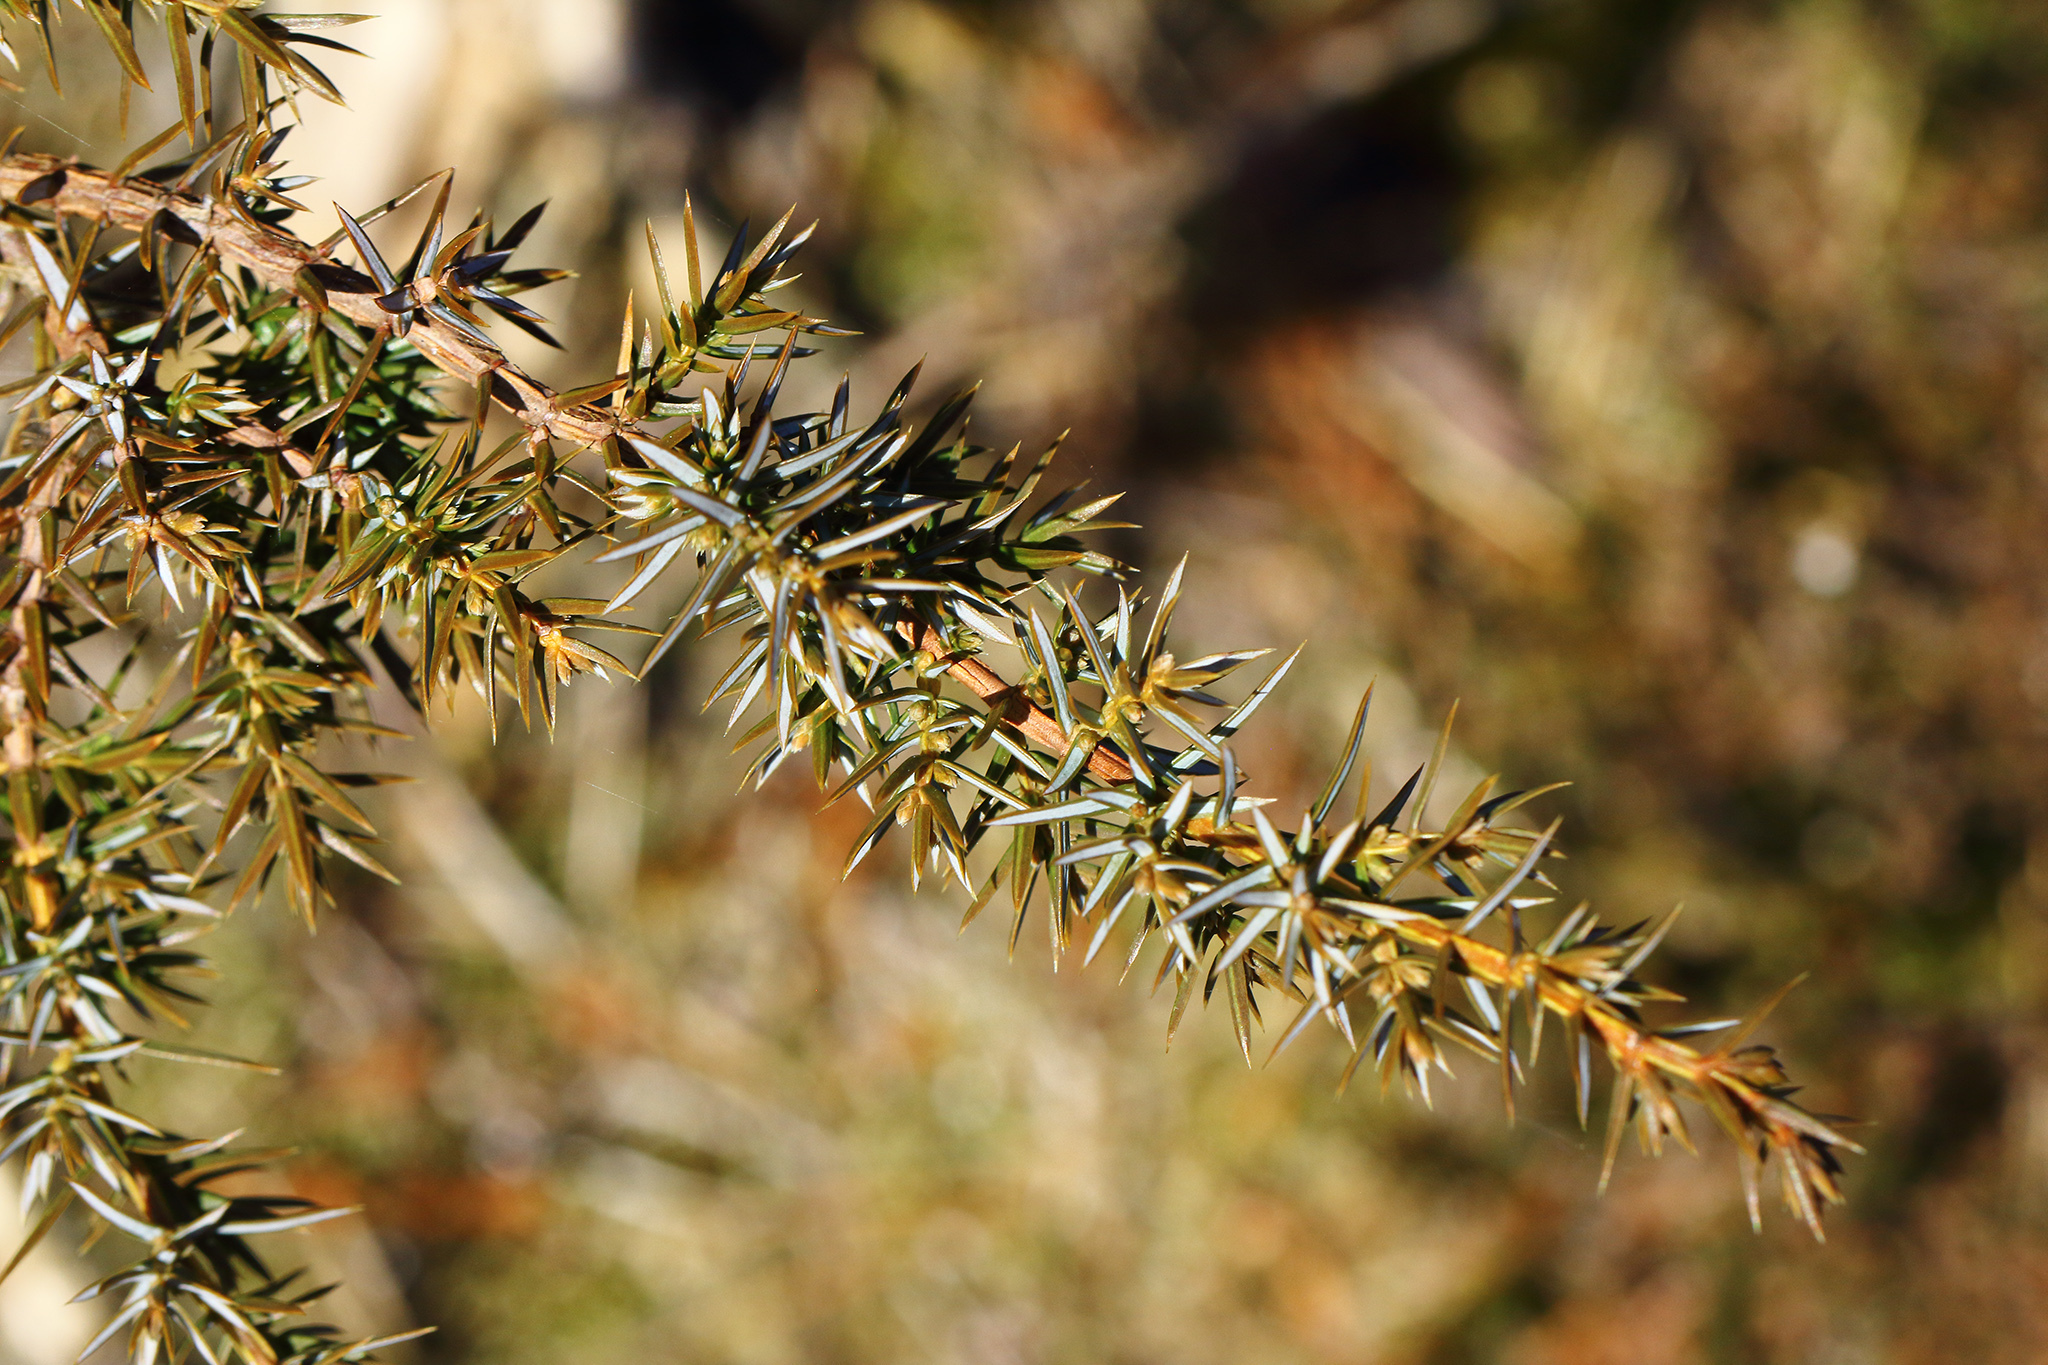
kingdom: Plantae
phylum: Tracheophyta
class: Pinopsida
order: Pinales
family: Cupressaceae
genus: Juniperus
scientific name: Juniperus communis
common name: Common juniper
